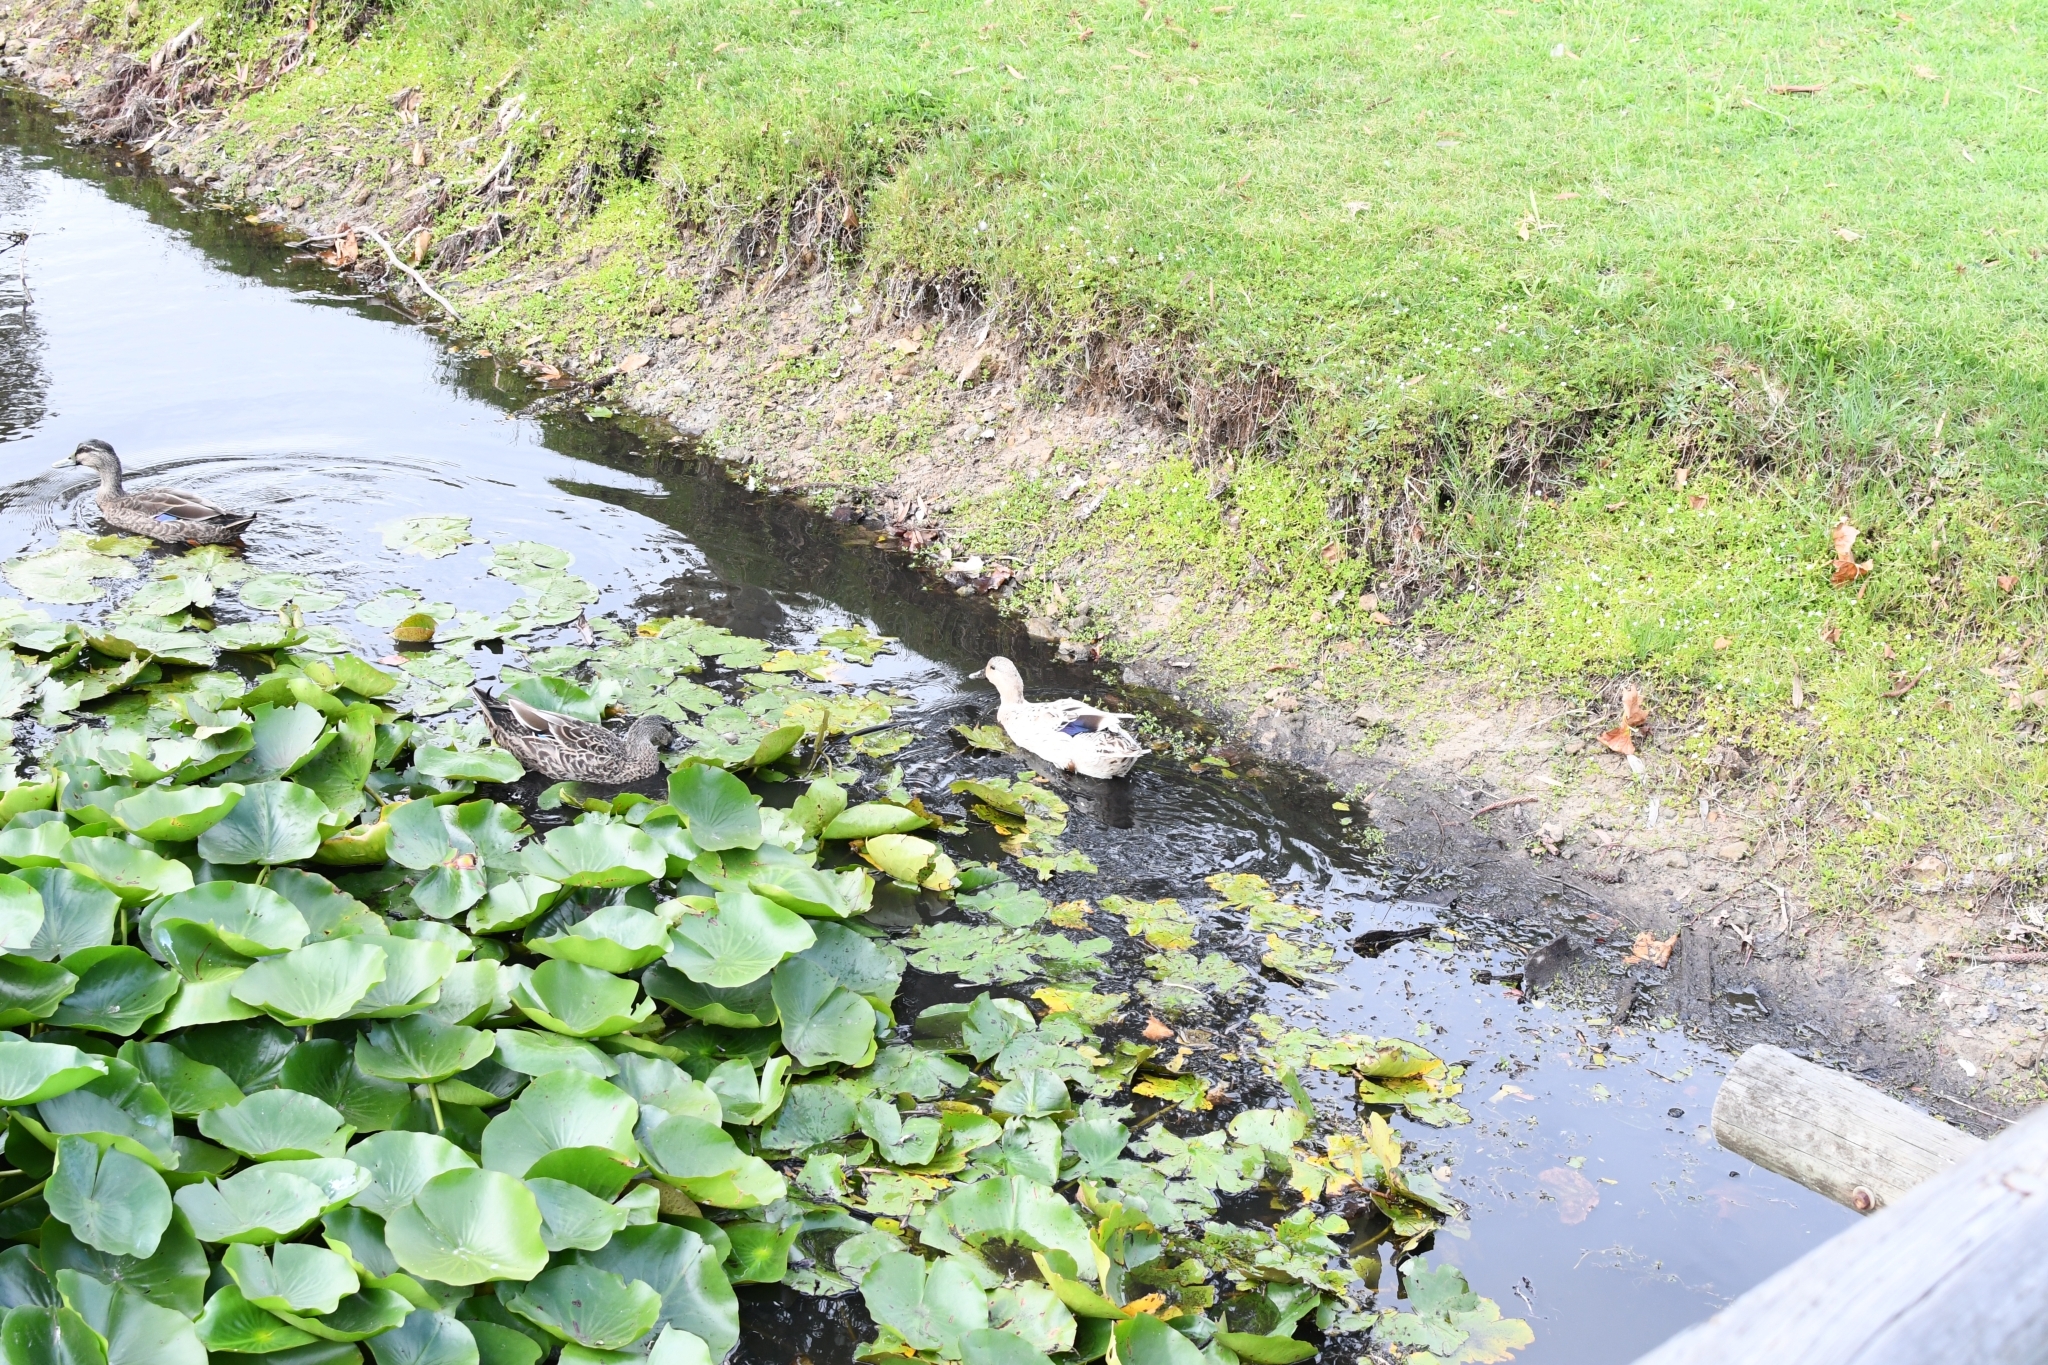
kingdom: Animalia
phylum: Chordata
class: Aves
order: Anseriformes
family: Anatidae
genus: Anas
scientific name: Anas platyrhynchos
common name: Mallard
